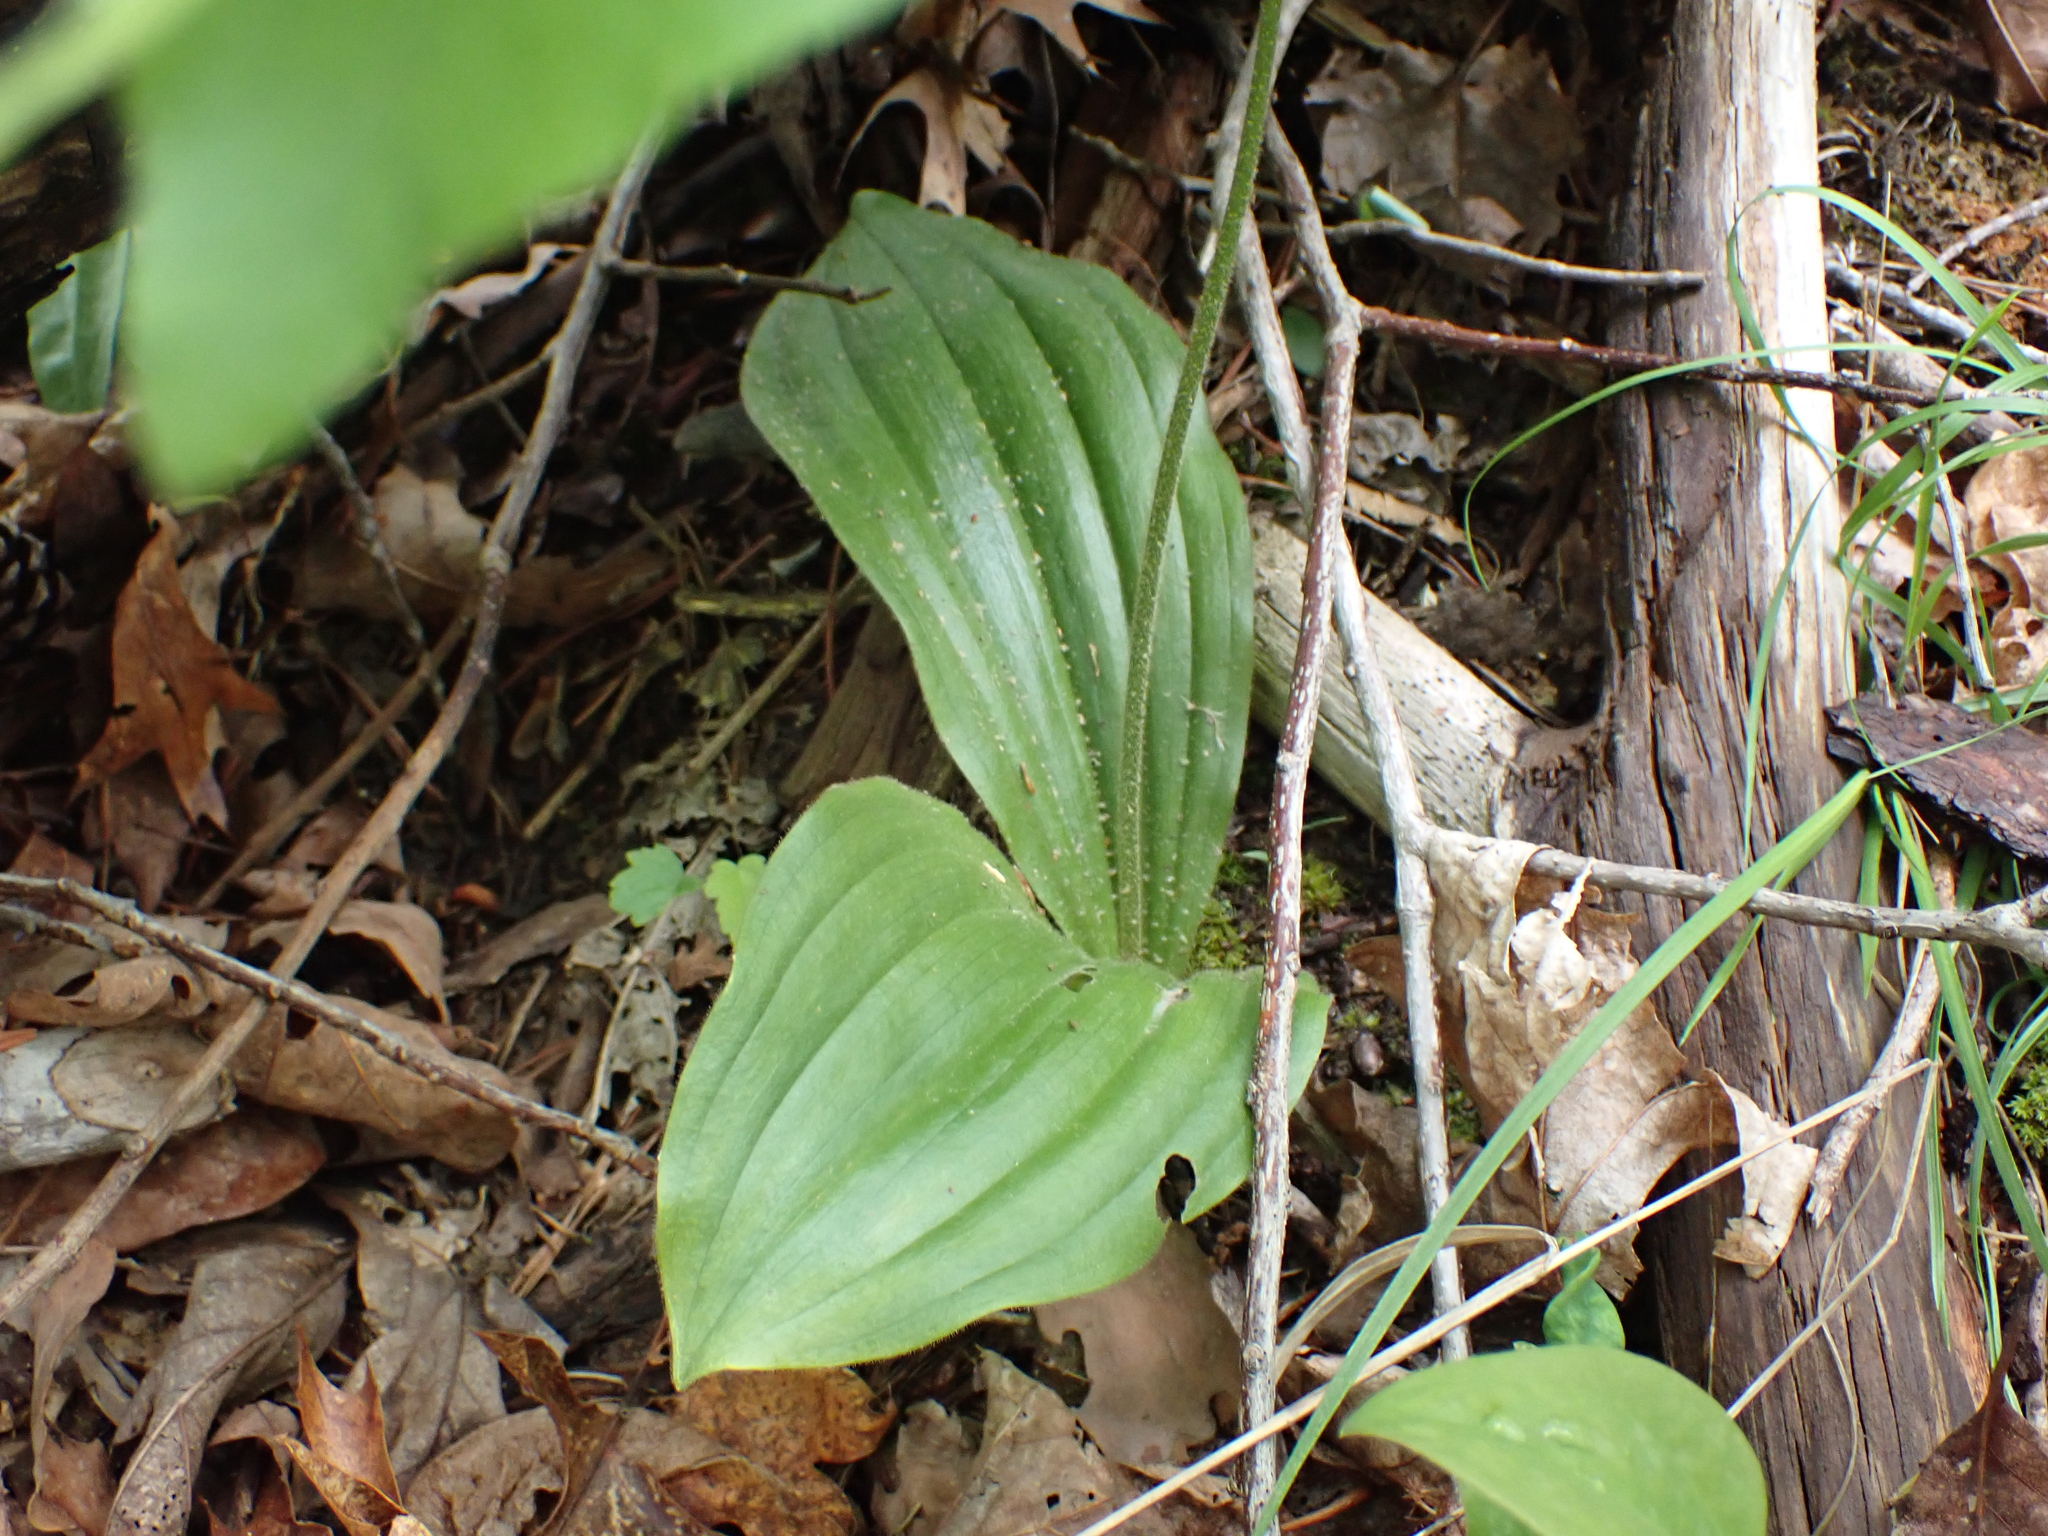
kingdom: Plantae
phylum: Tracheophyta
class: Liliopsida
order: Asparagales
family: Orchidaceae
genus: Cypripedium
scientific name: Cypripedium acaule
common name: Pink lady's-slipper
